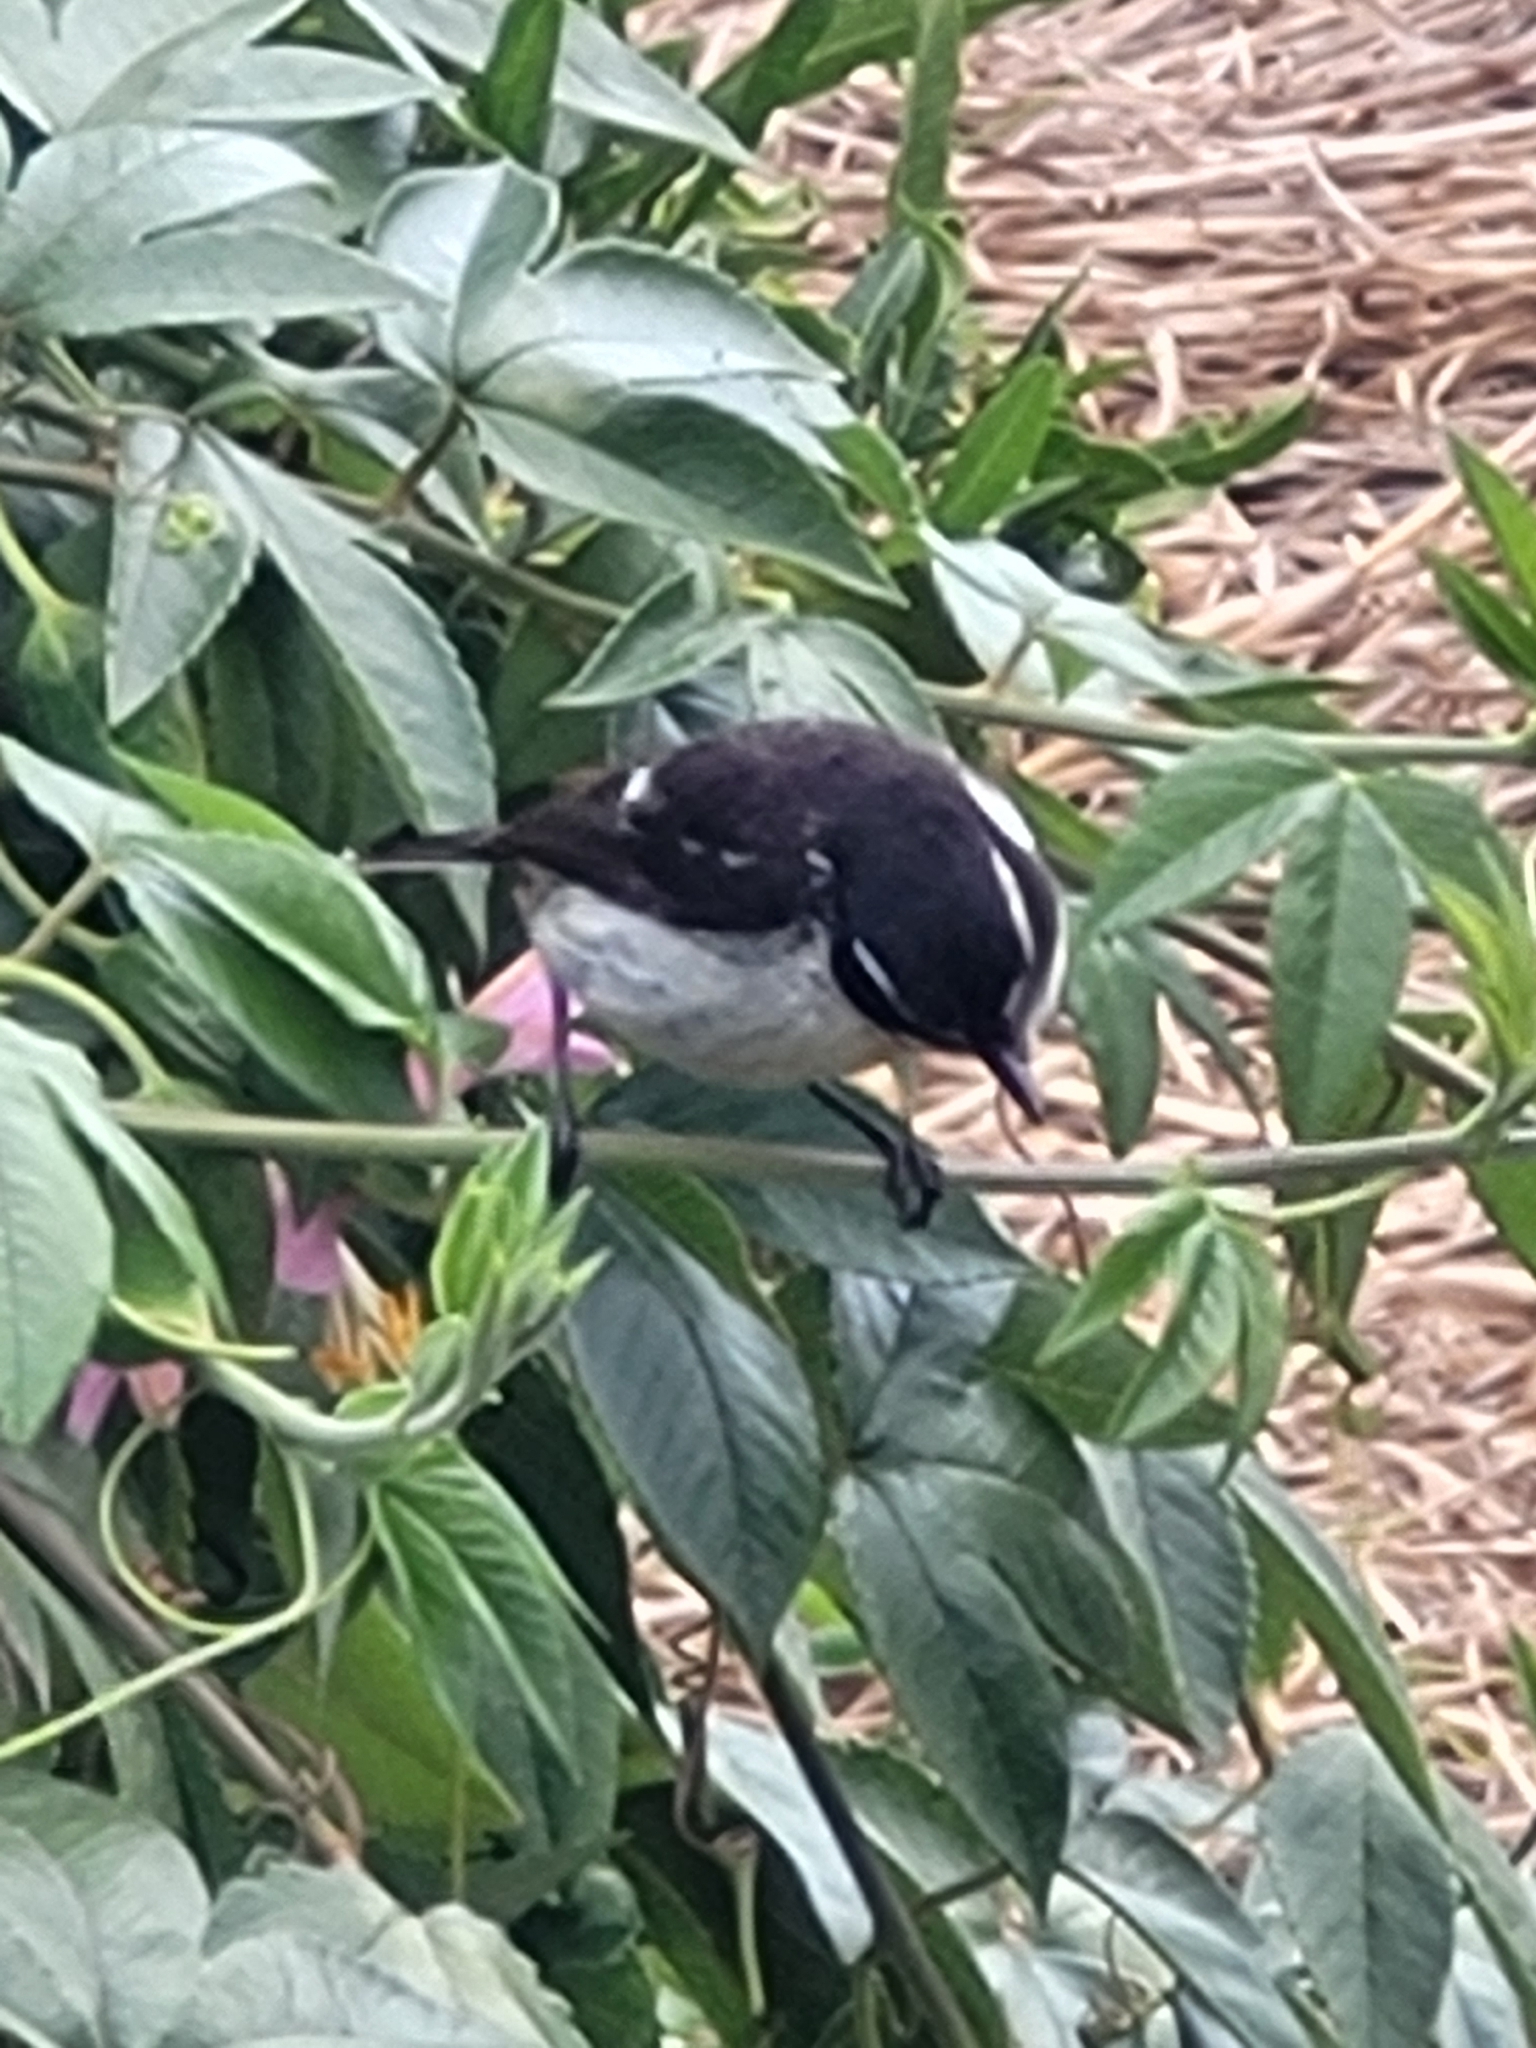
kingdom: Animalia
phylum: Chordata
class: Aves
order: Passeriformes
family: Muscicapidae
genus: Saxicola
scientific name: Saxicola tectes
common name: Reunion stonechat
